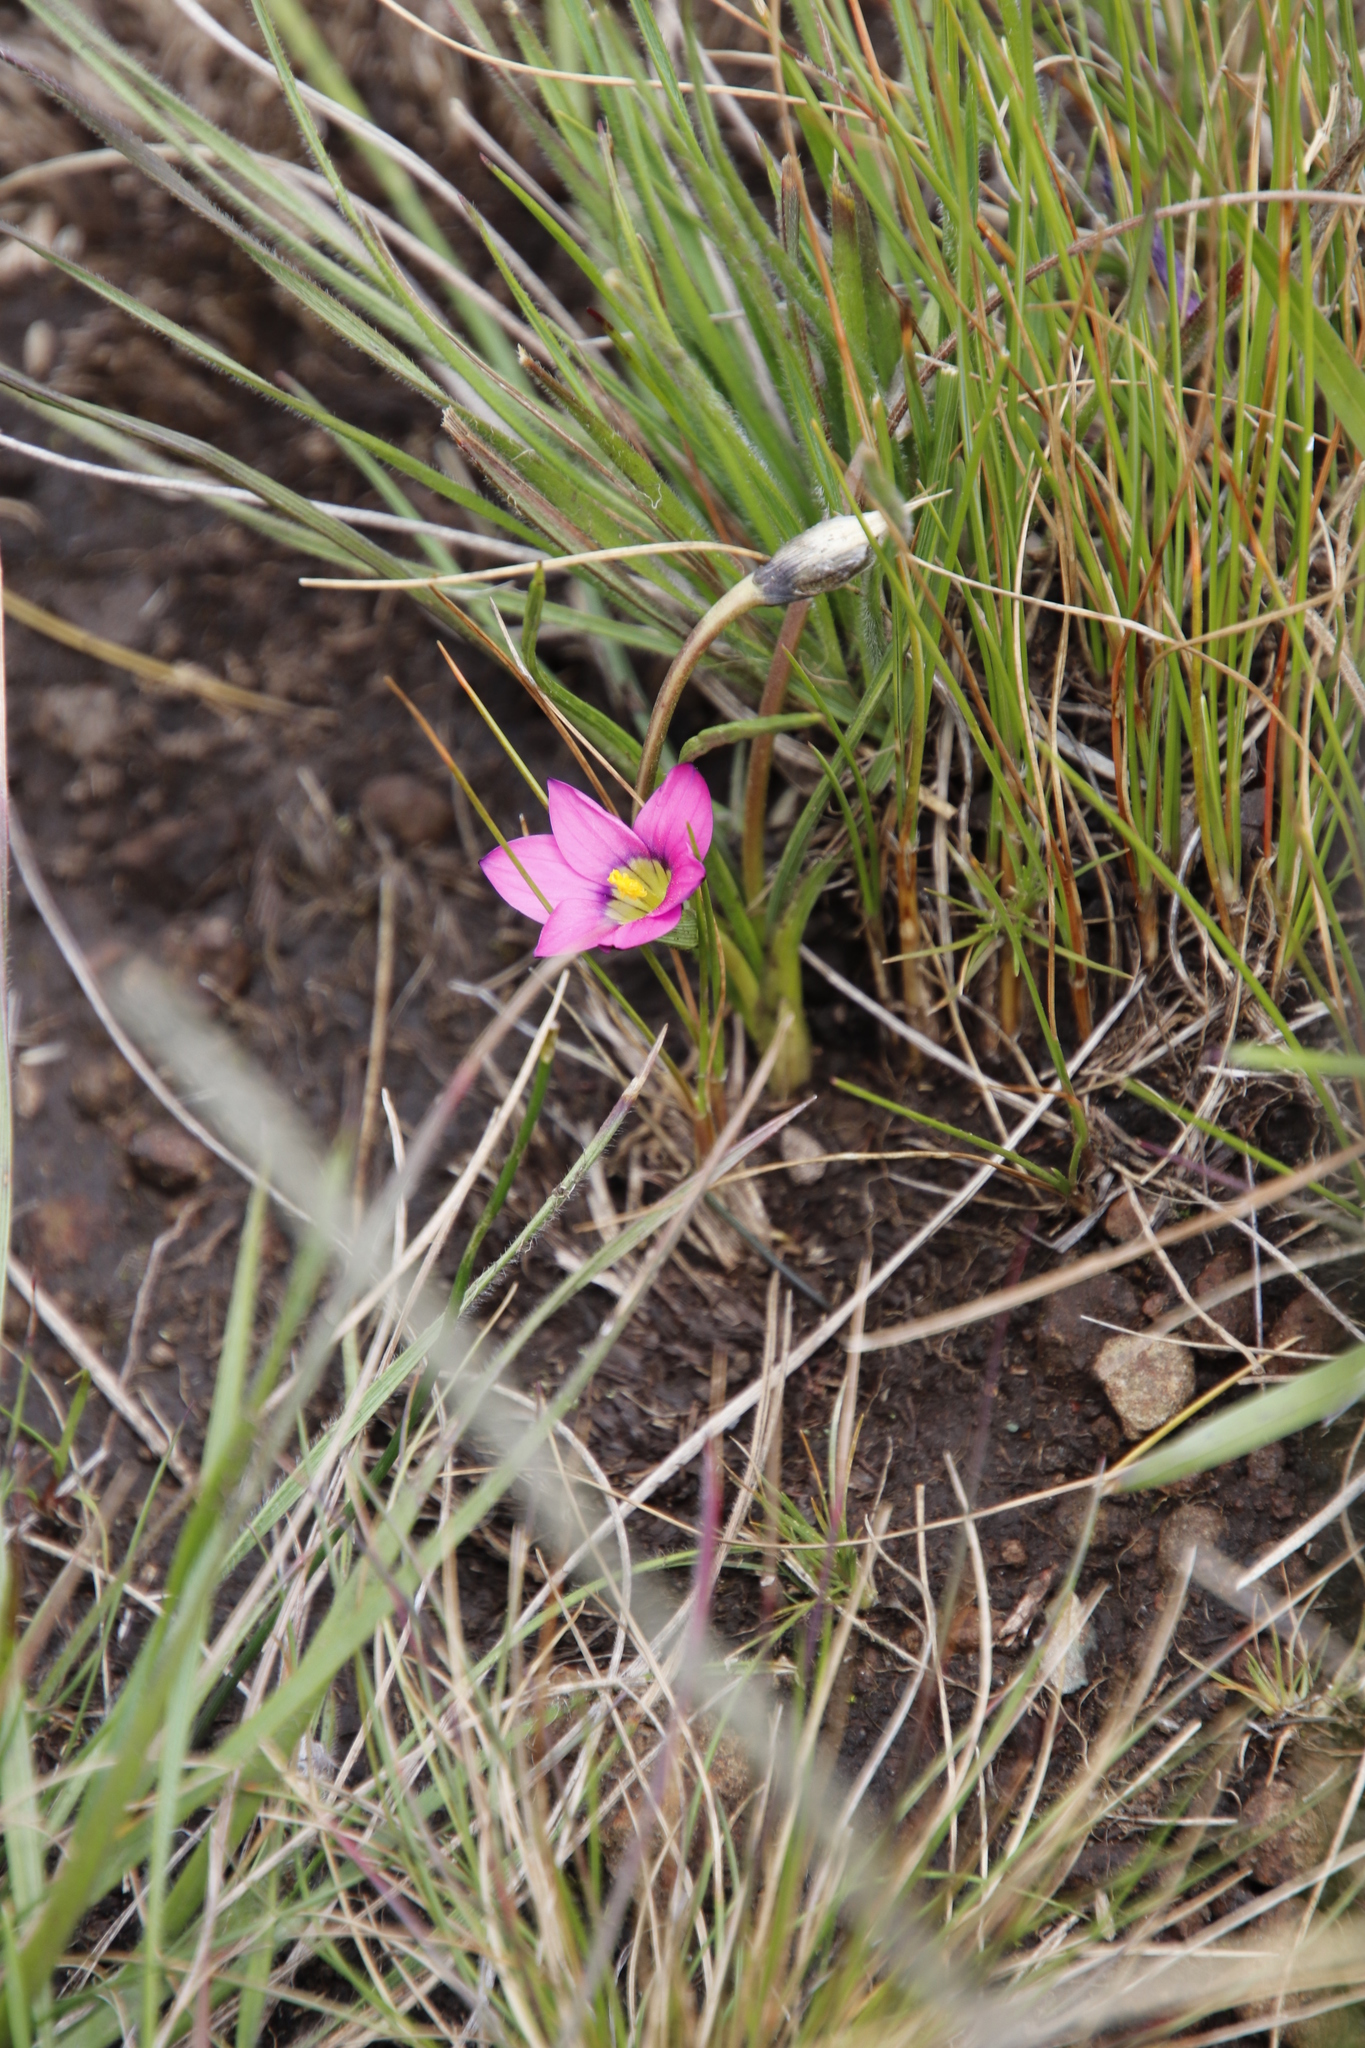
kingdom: Plantae
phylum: Tracheophyta
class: Liliopsida
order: Asparagales
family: Iridaceae
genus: Romulea
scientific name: Romulea camerooniana
